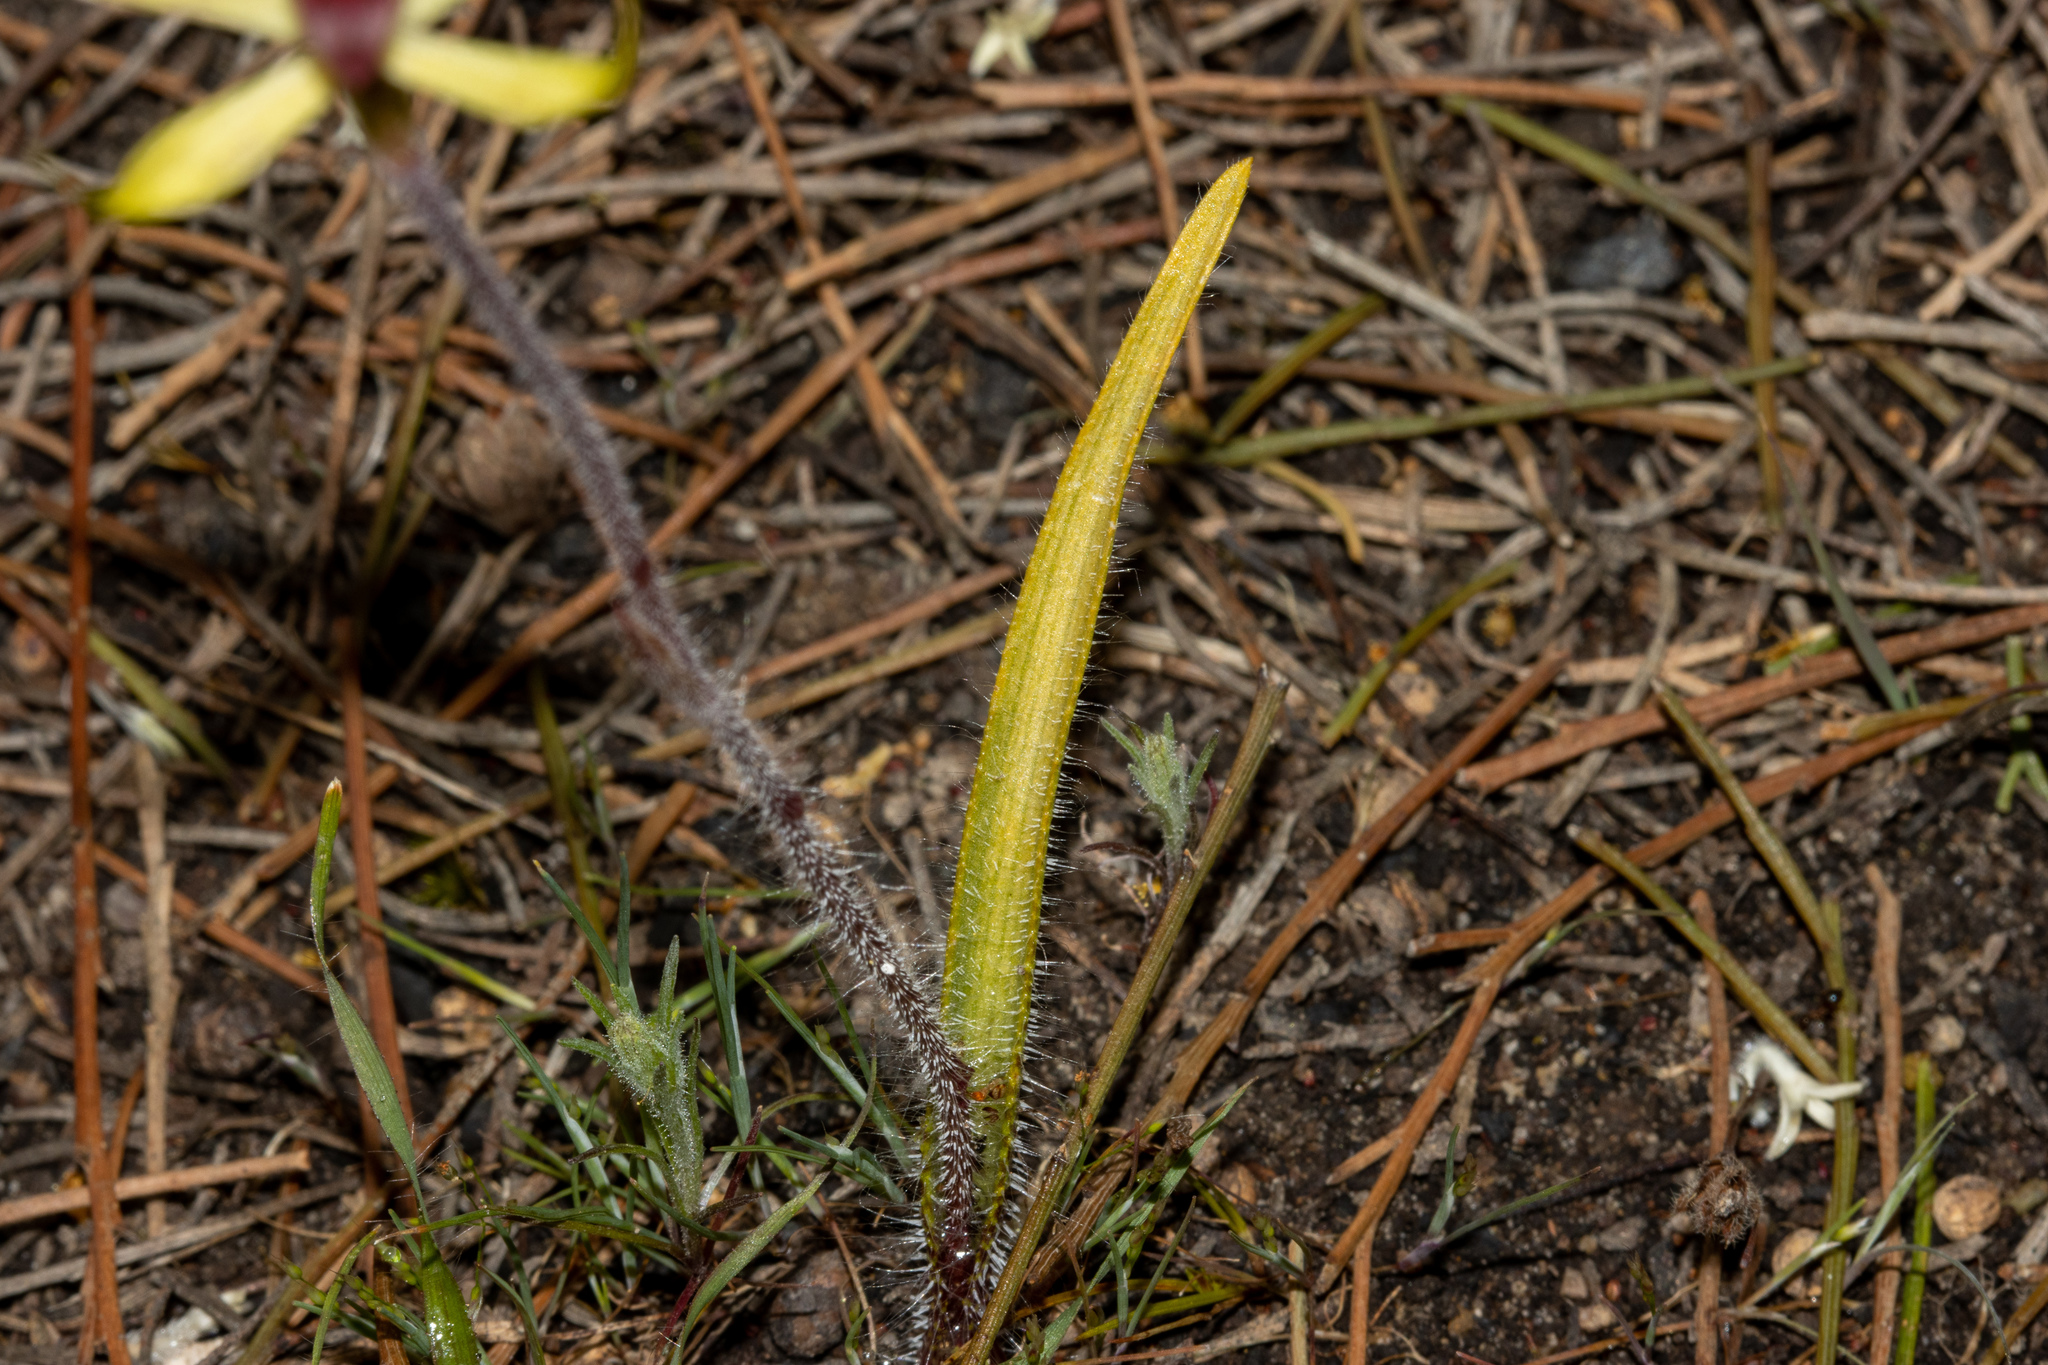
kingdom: Plantae
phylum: Tracheophyta
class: Liliopsida
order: Asparagales
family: Orchidaceae
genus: Caladenia
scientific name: Caladenia leptochila
